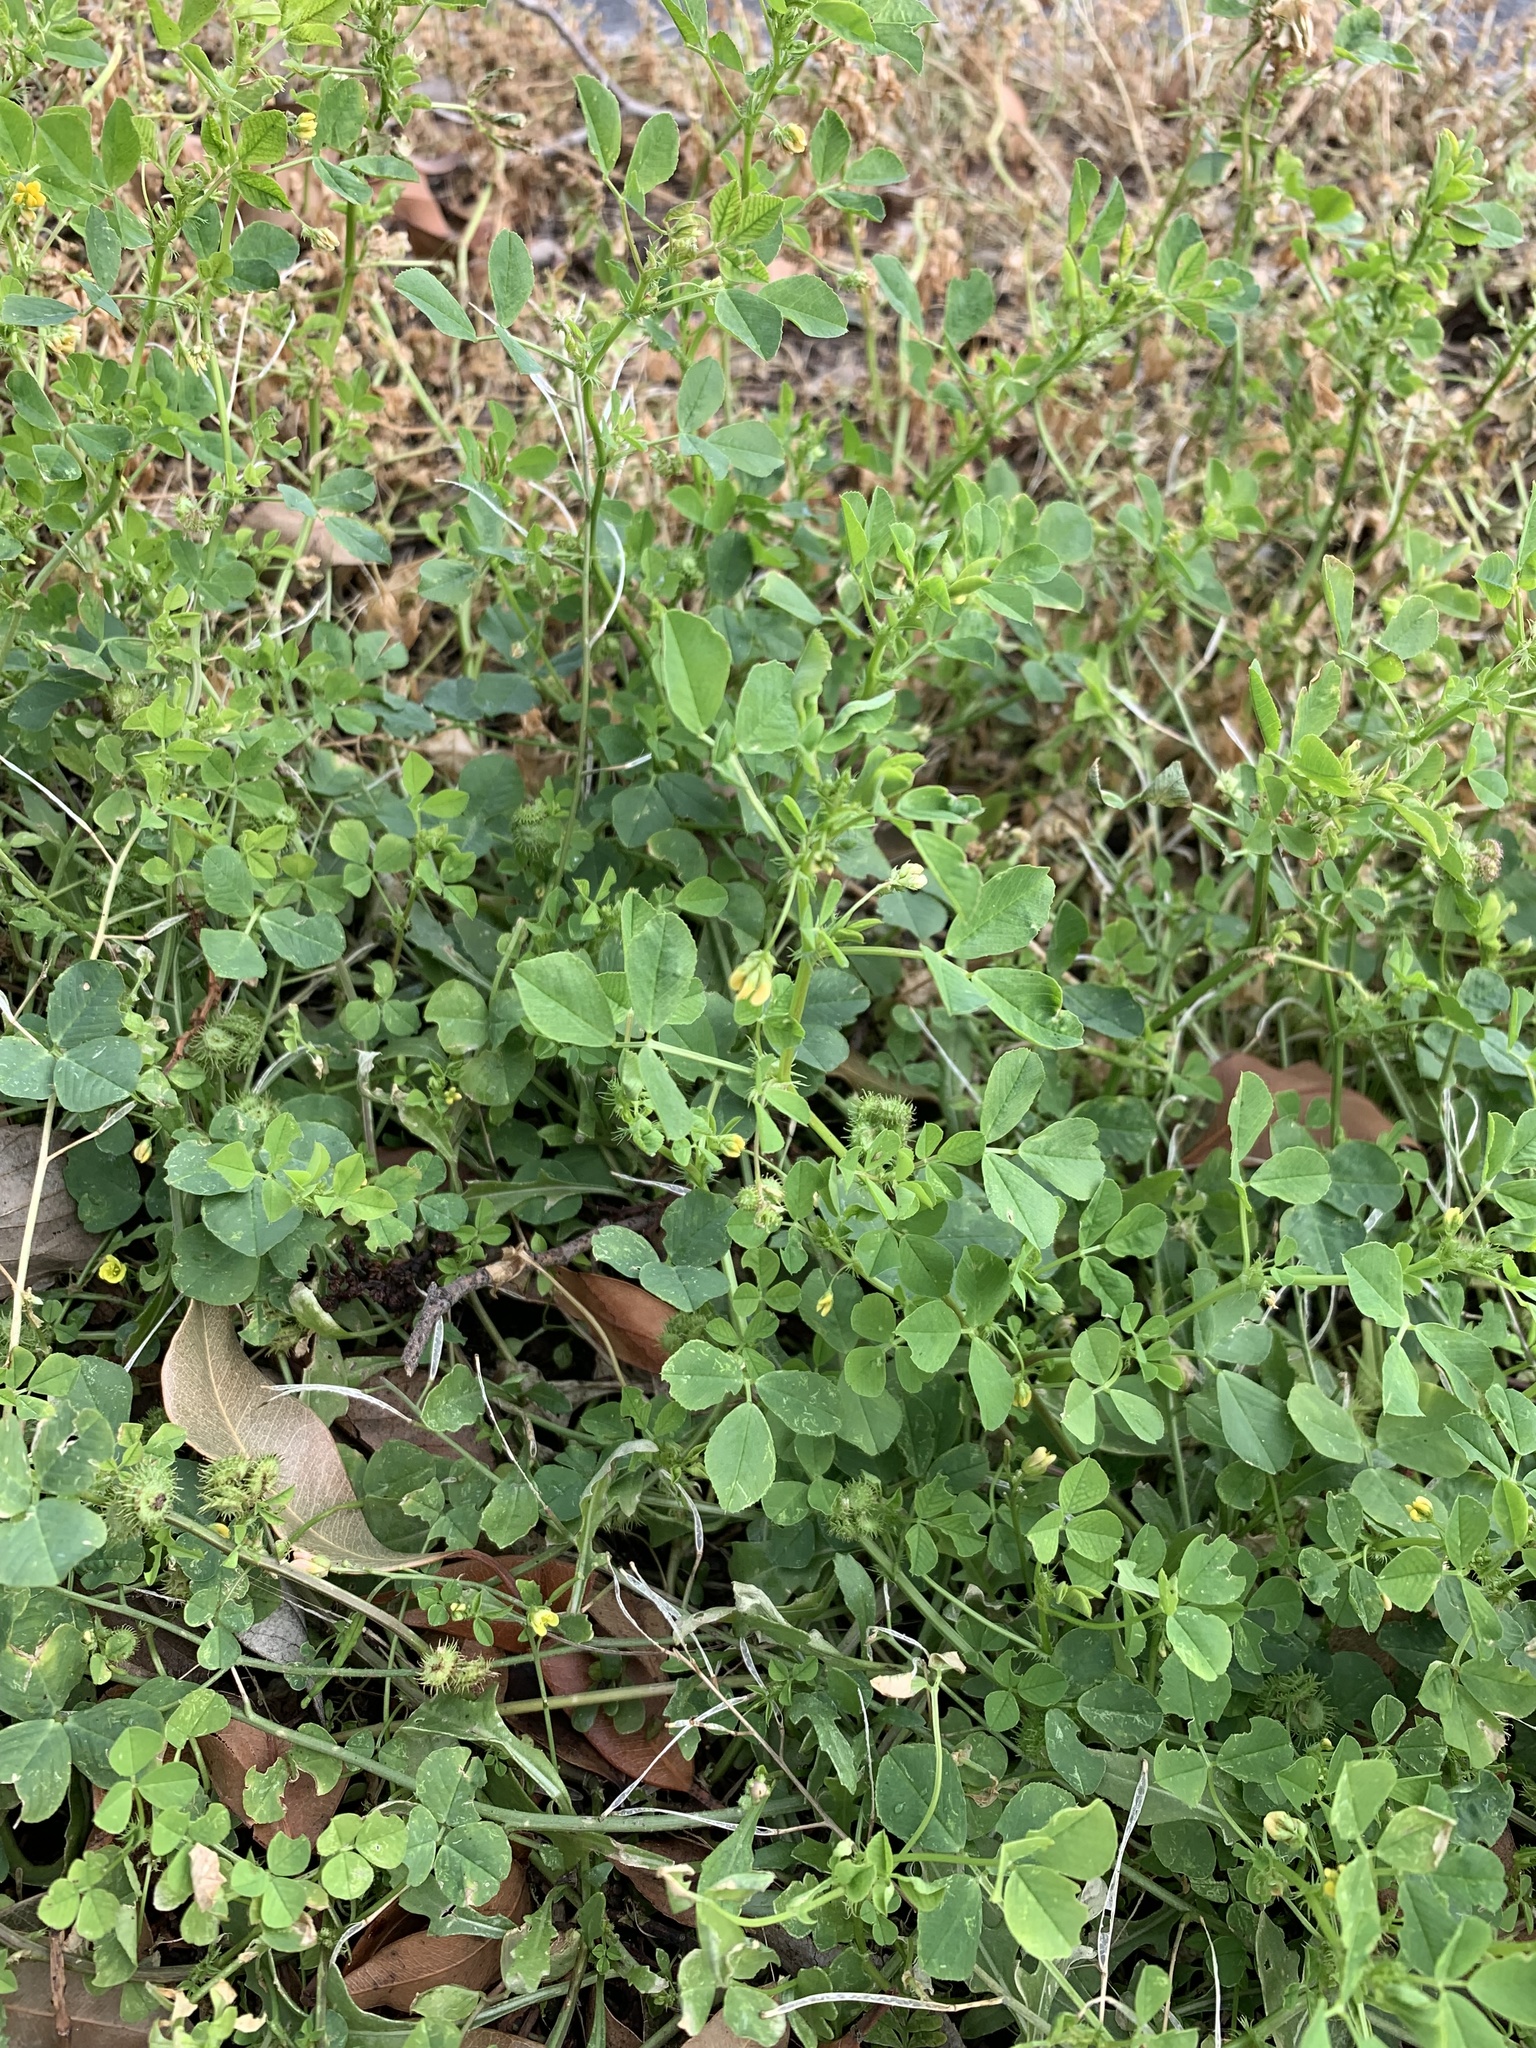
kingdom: Plantae
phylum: Tracheophyta
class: Magnoliopsida
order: Fabales
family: Fabaceae
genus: Medicago
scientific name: Medicago polymorpha
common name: Burclover
